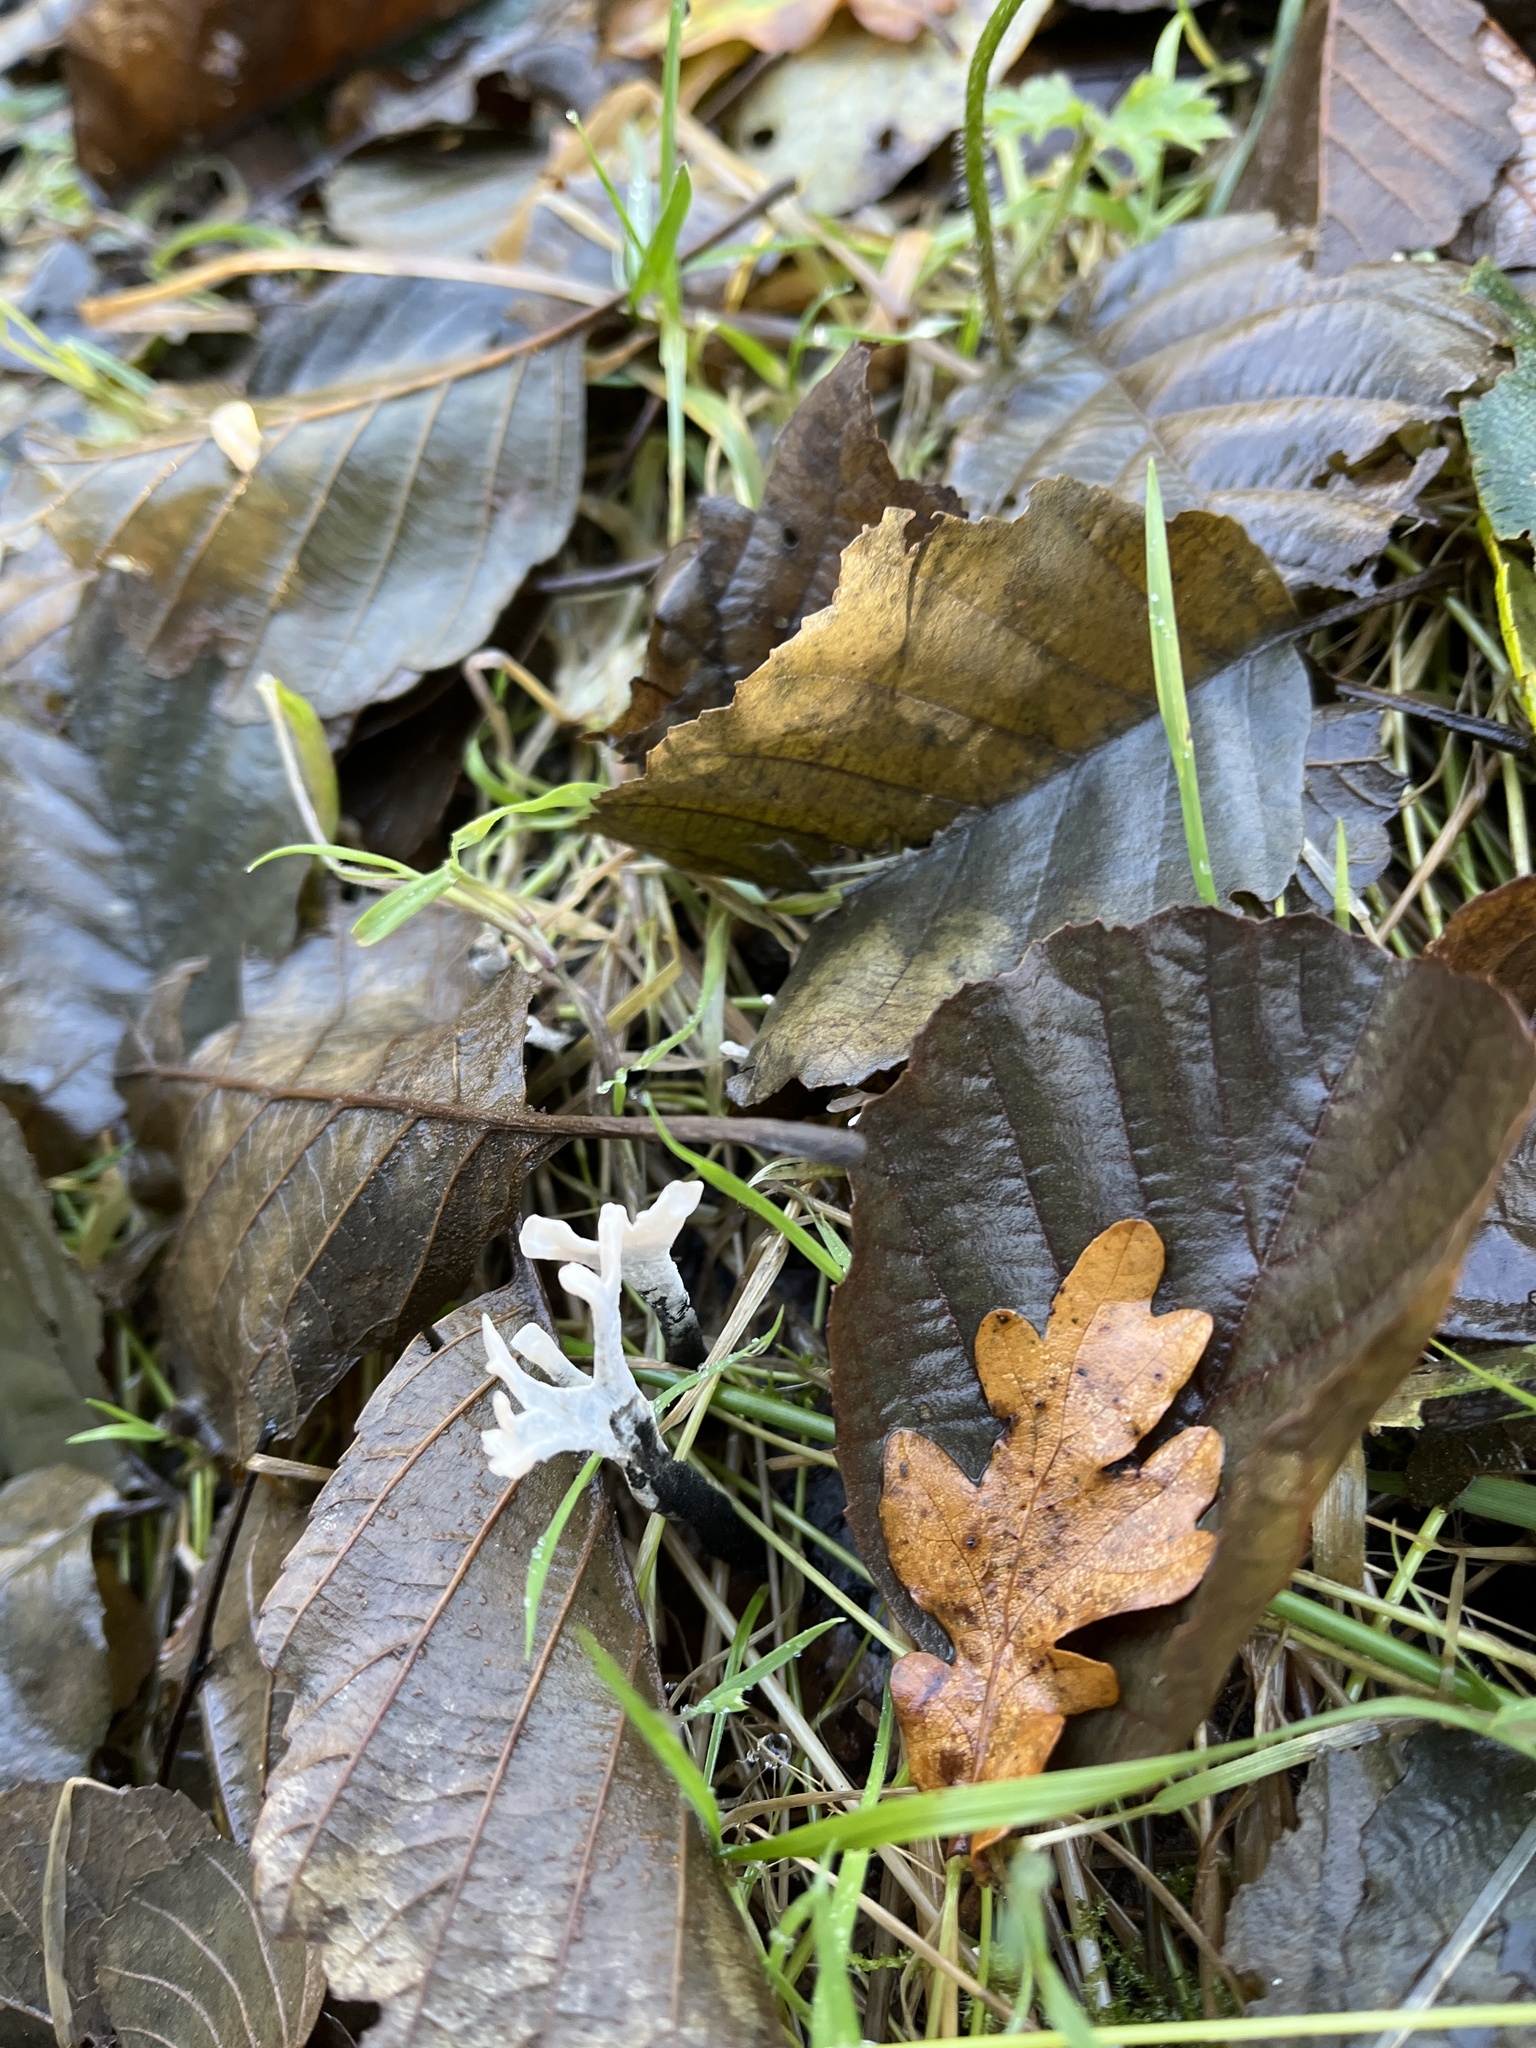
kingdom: Fungi
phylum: Ascomycota
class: Sordariomycetes
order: Xylariales
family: Xylariaceae
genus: Xylaria
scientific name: Xylaria hypoxylon
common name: Candle-snuff fungus
